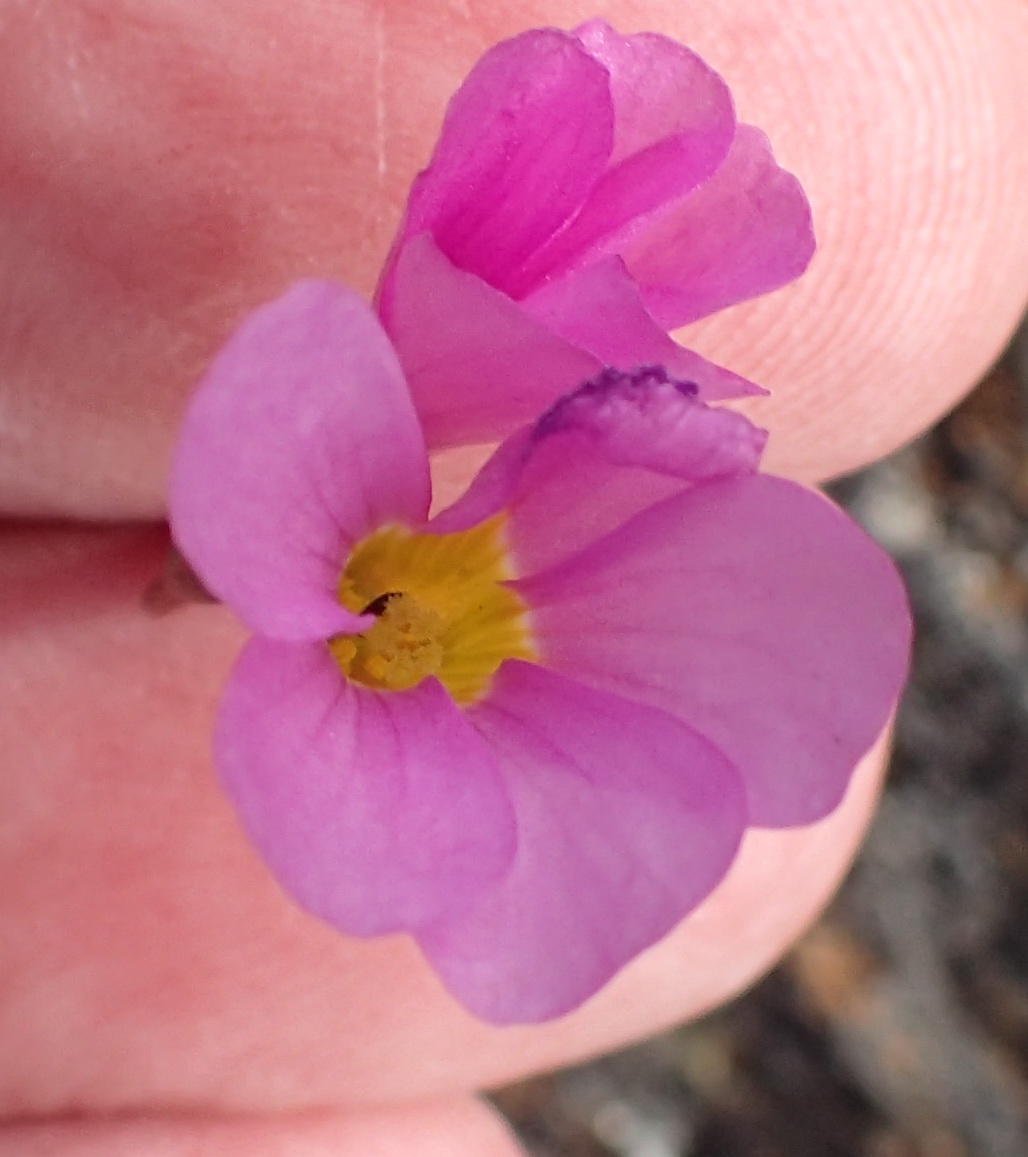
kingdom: Plantae
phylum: Tracheophyta
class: Magnoliopsida
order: Oxalidales
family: Oxalidaceae
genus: Oxalis
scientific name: Oxalis dichotoma
